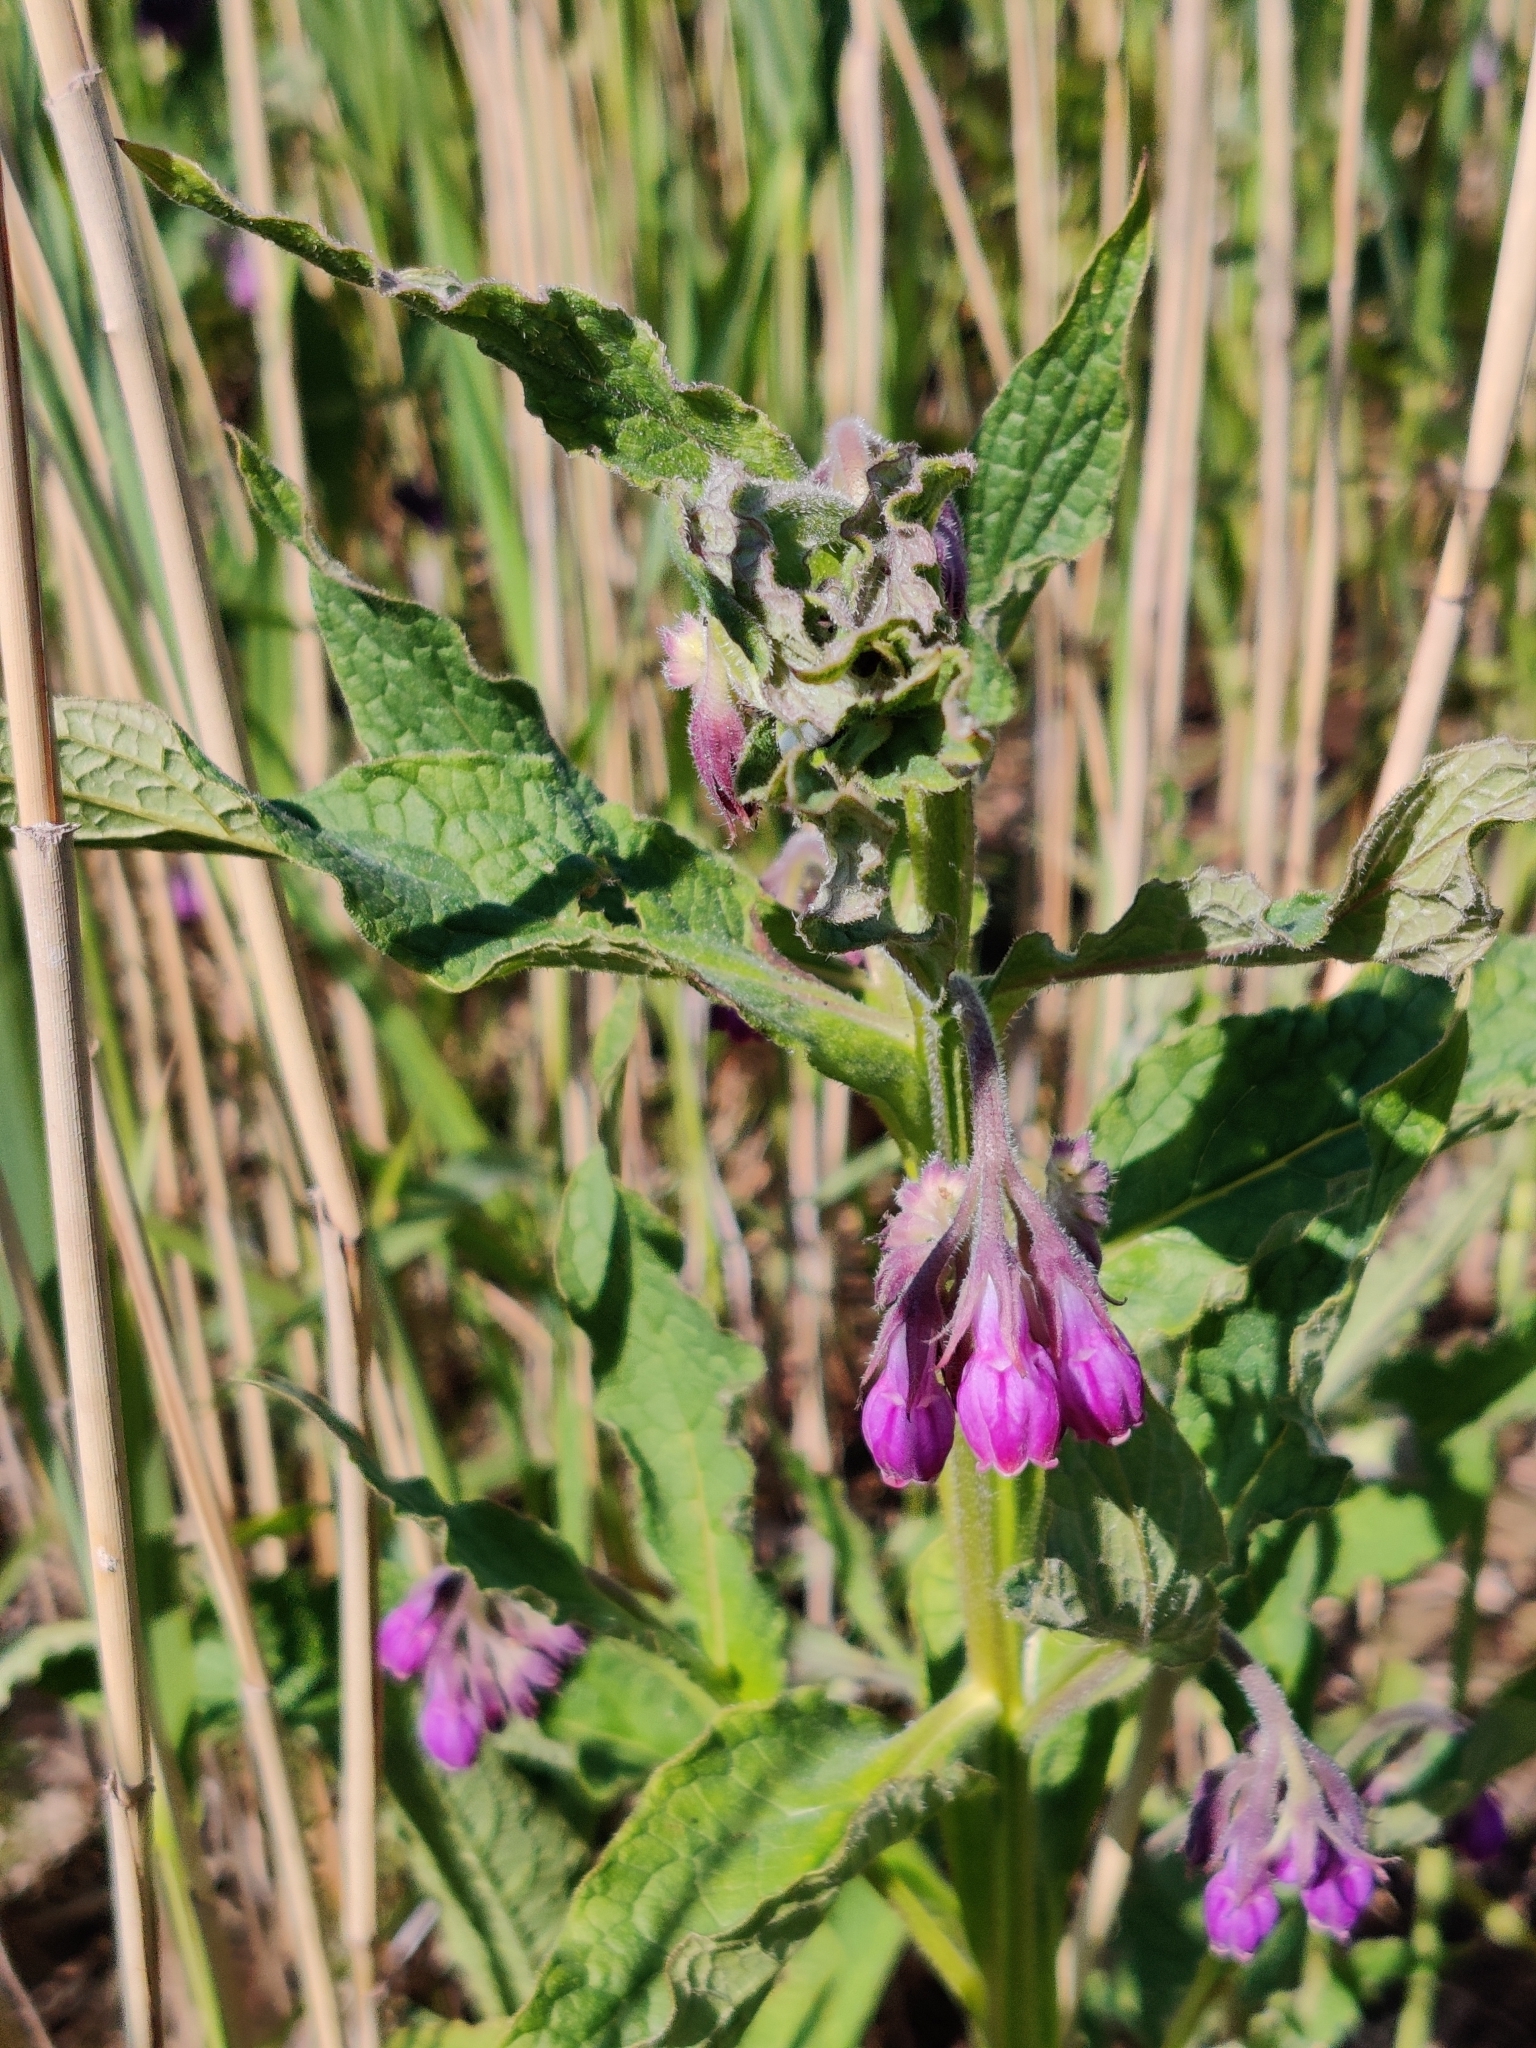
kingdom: Plantae
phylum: Tracheophyta
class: Magnoliopsida
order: Boraginales
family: Boraginaceae
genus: Symphytum
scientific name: Symphytum officinale
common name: Common comfrey
